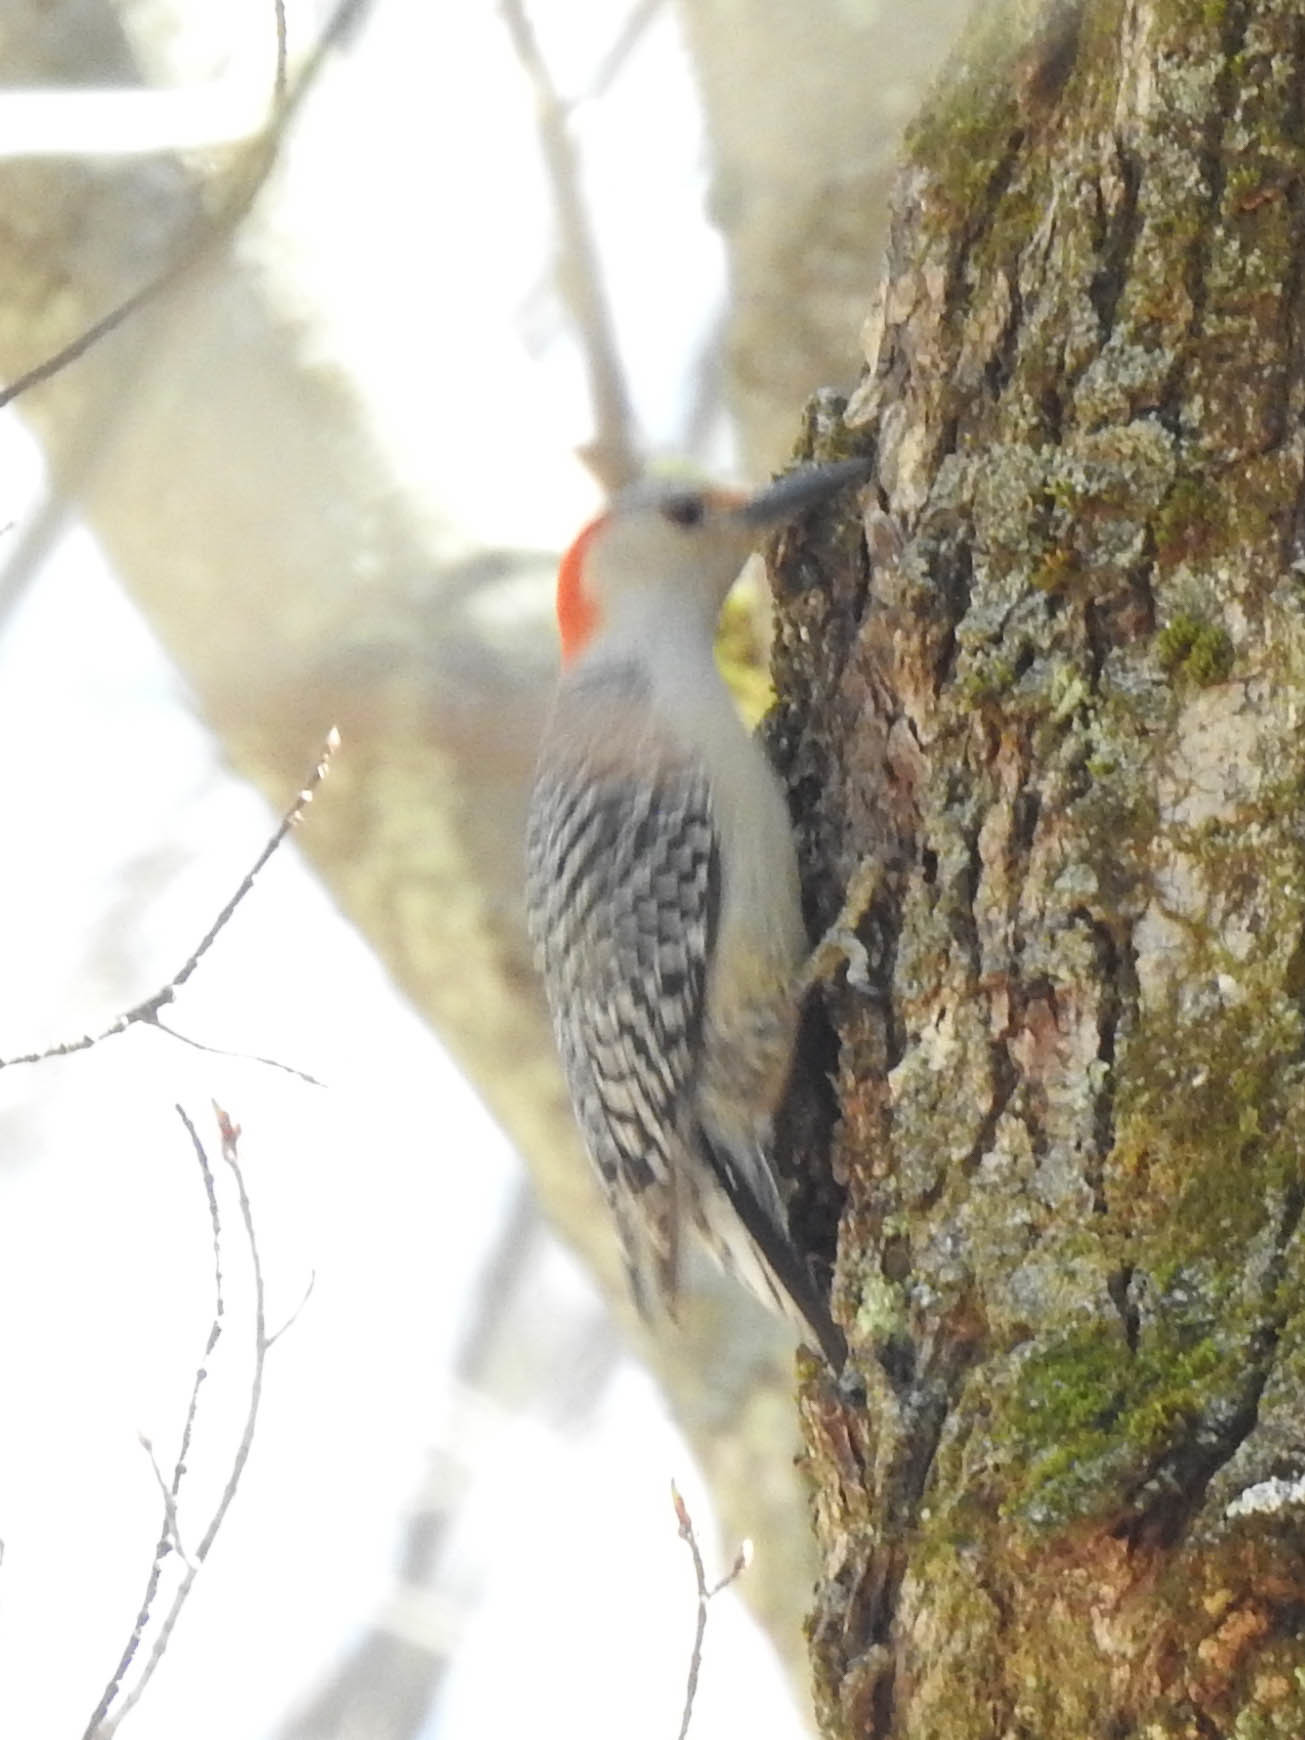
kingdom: Animalia
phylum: Chordata
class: Aves
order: Piciformes
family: Picidae
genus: Melanerpes
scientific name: Melanerpes carolinus
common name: Red-bellied woodpecker
